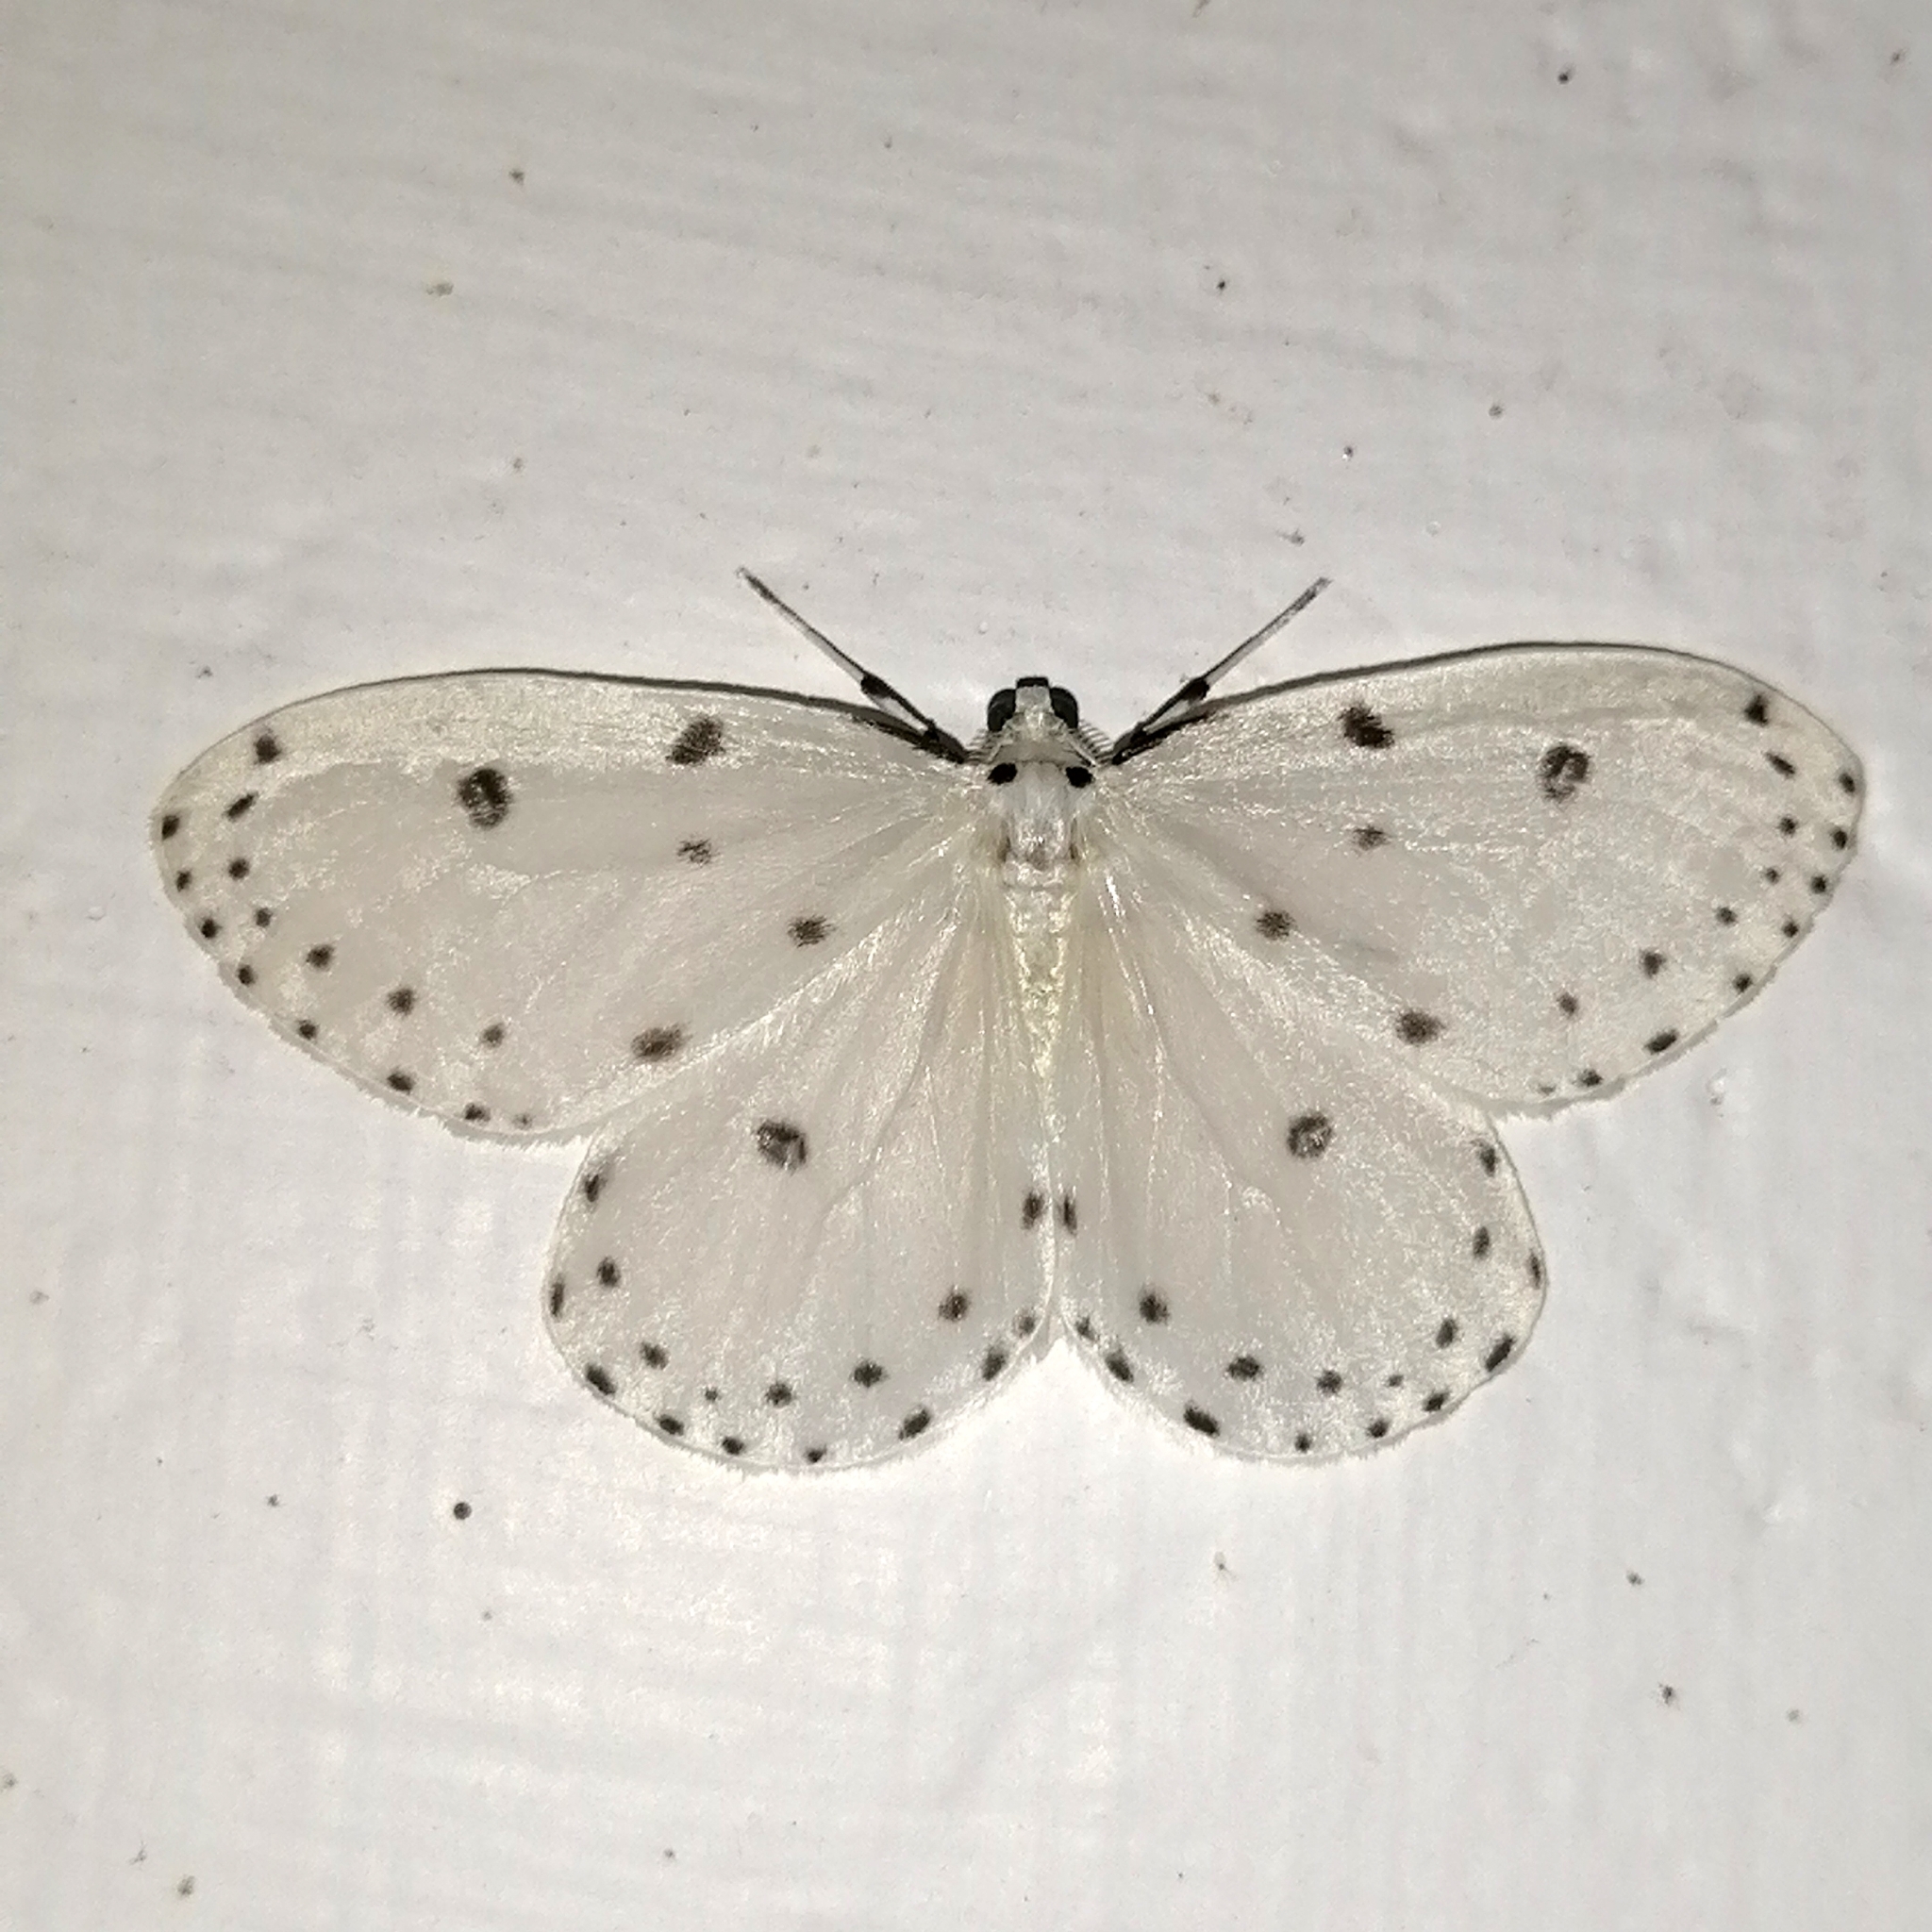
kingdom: Animalia
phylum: Arthropoda
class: Insecta
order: Lepidoptera
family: Geometridae
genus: Naxa
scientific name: Naxa textilis
